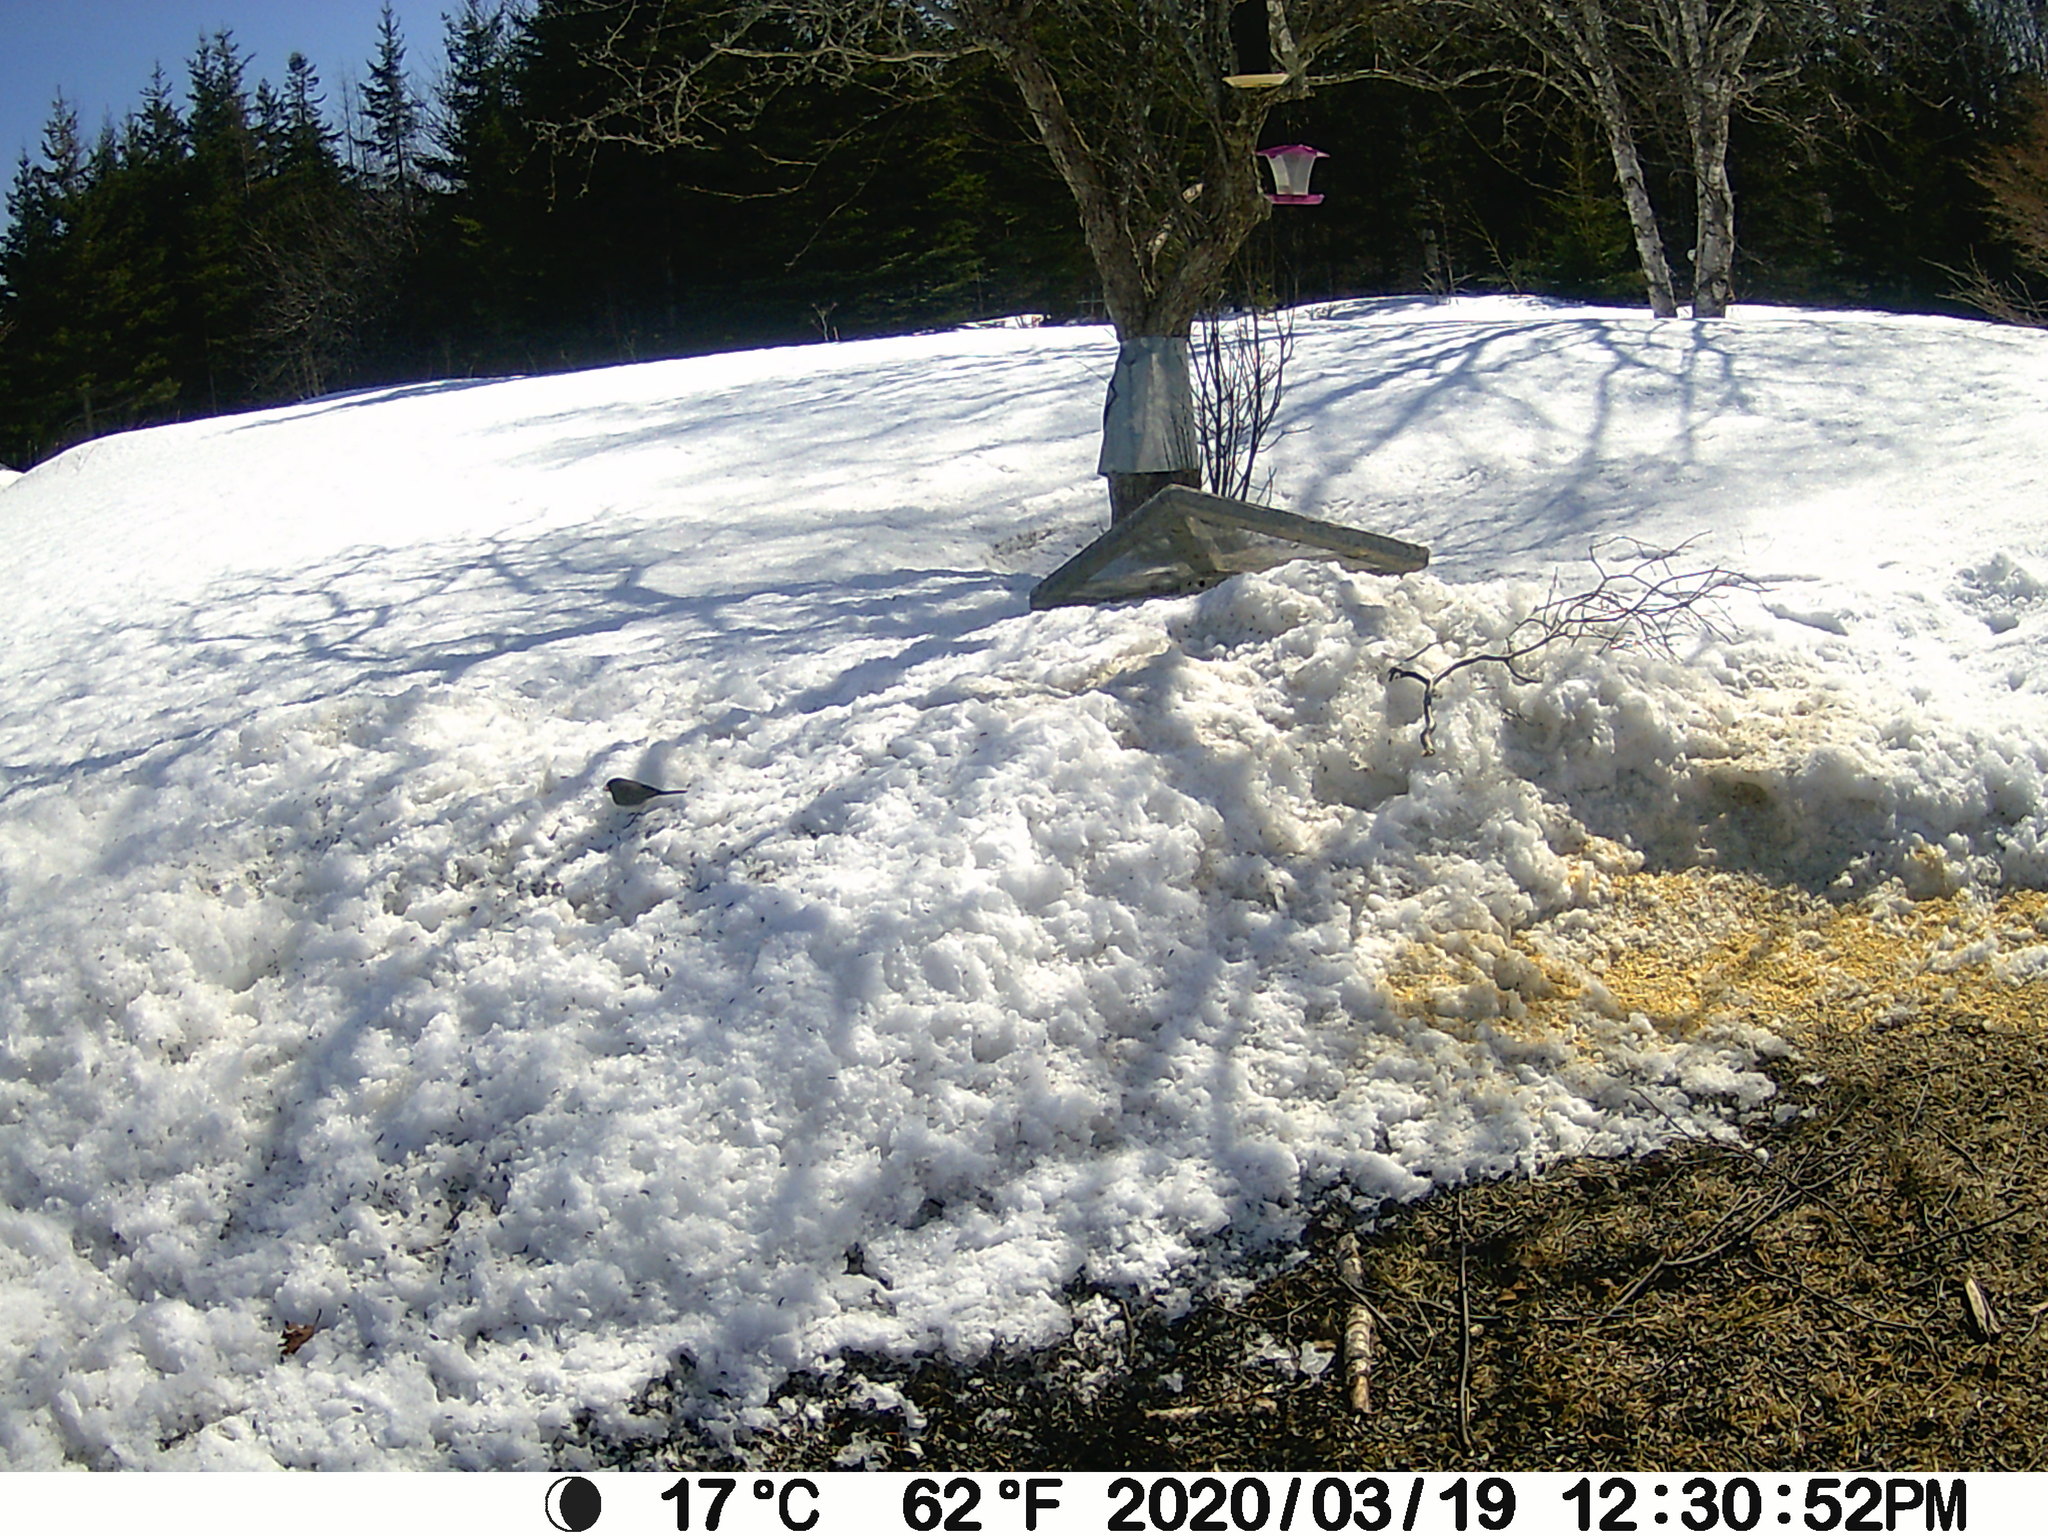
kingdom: Animalia
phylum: Chordata
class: Aves
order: Passeriformes
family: Passerellidae
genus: Junco
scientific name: Junco hyemalis
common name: Dark-eyed junco
